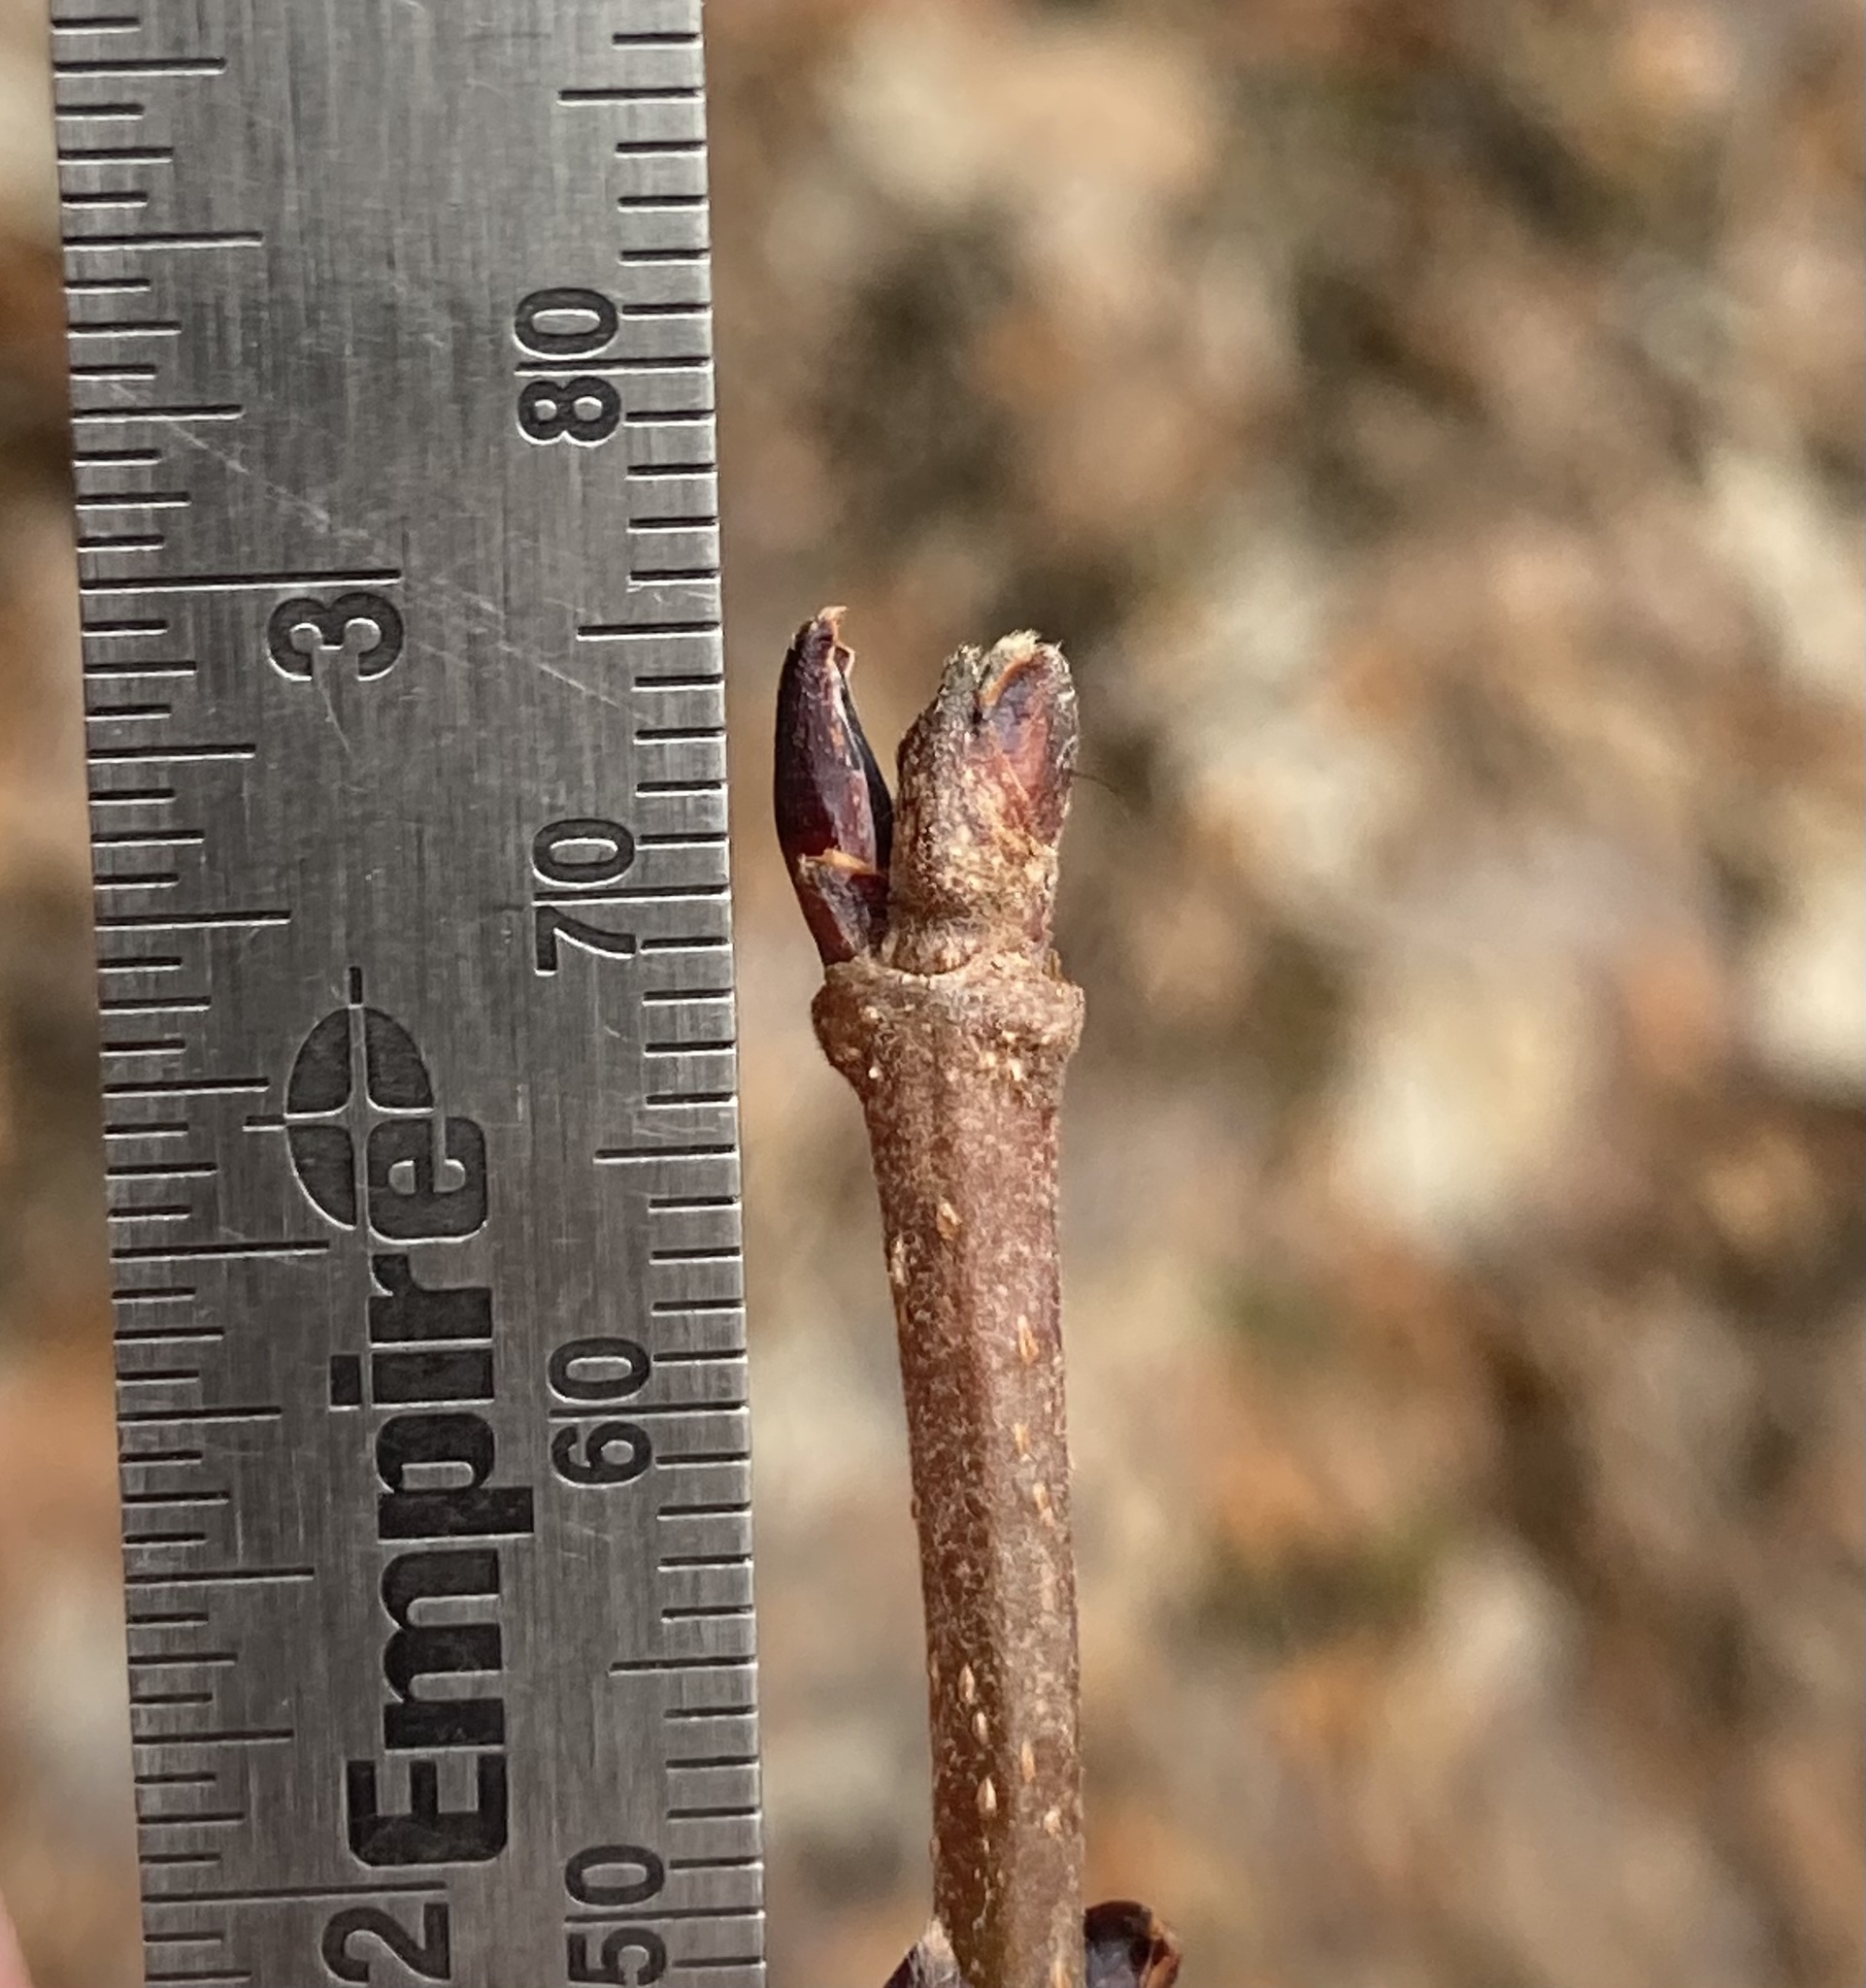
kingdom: Plantae
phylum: Tracheophyta
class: Magnoliopsida
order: Dipsacales
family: Viburnaceae
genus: Viburnum
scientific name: Viburnum acerifolium
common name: Dockmackie
